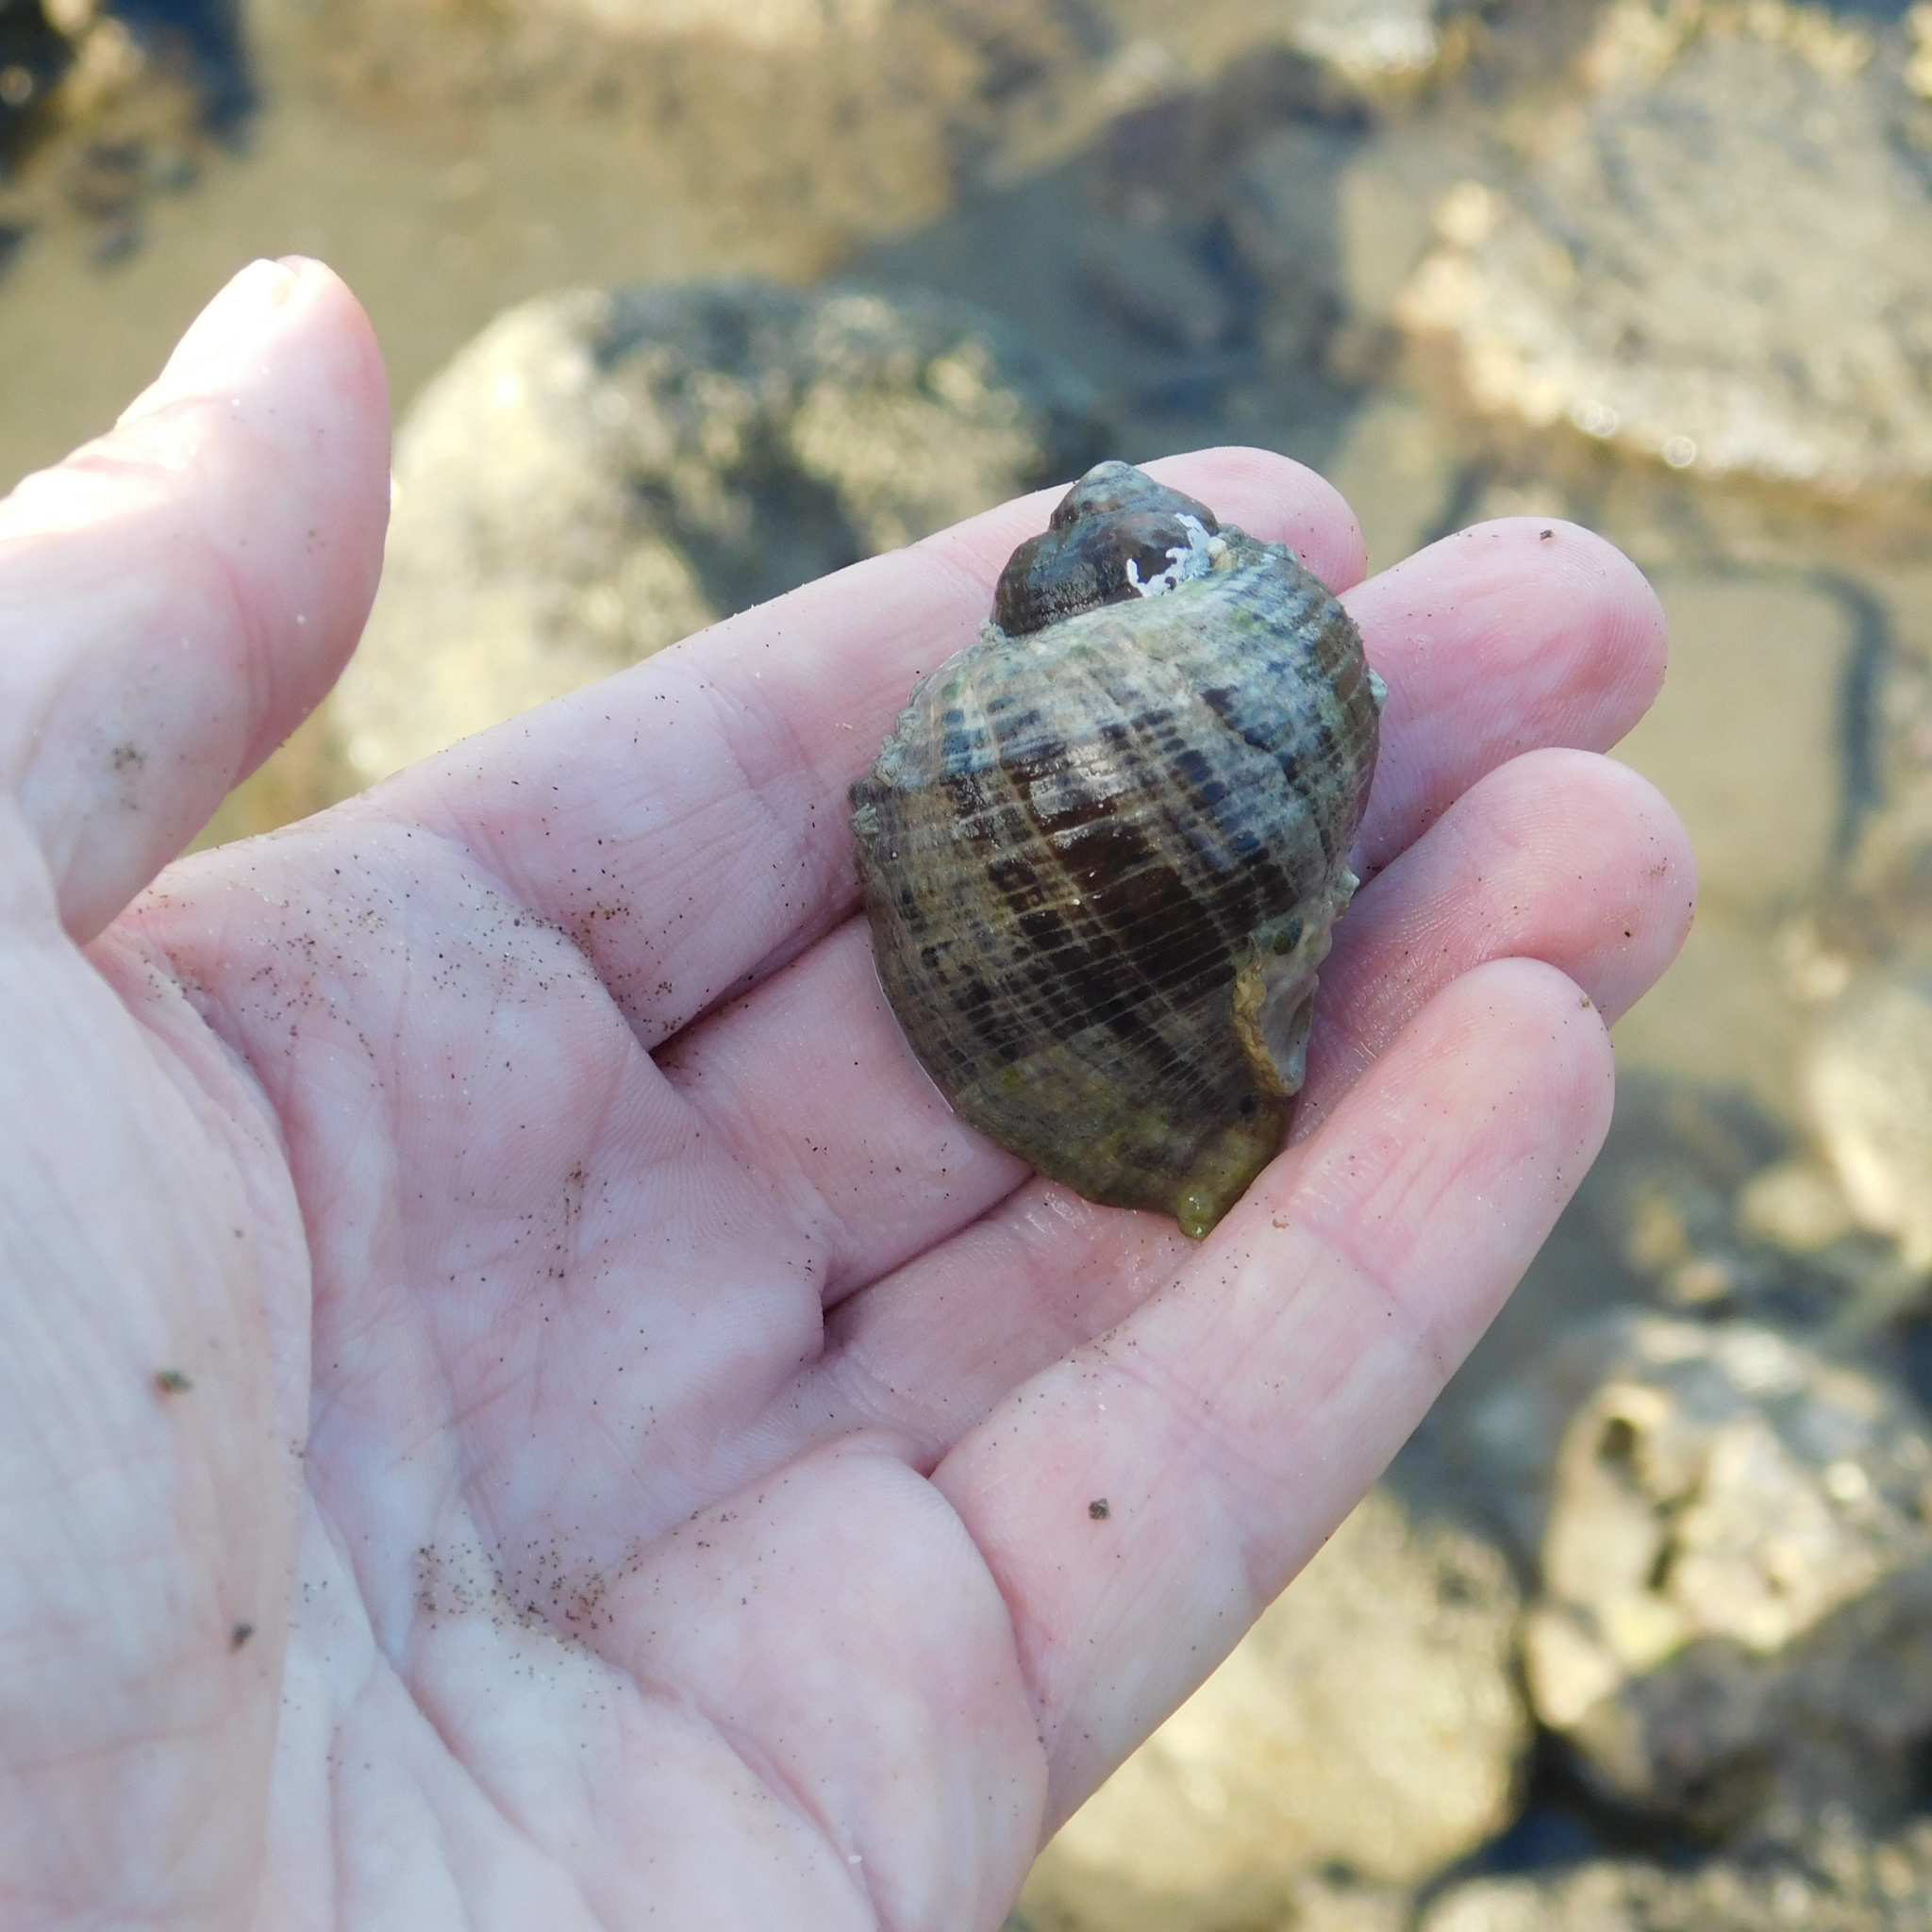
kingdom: Animalia
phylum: Mollusca
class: Gastropoda
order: Neogastropoda
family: Muricidae
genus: Haustrum
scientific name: Haustrum haustorium
